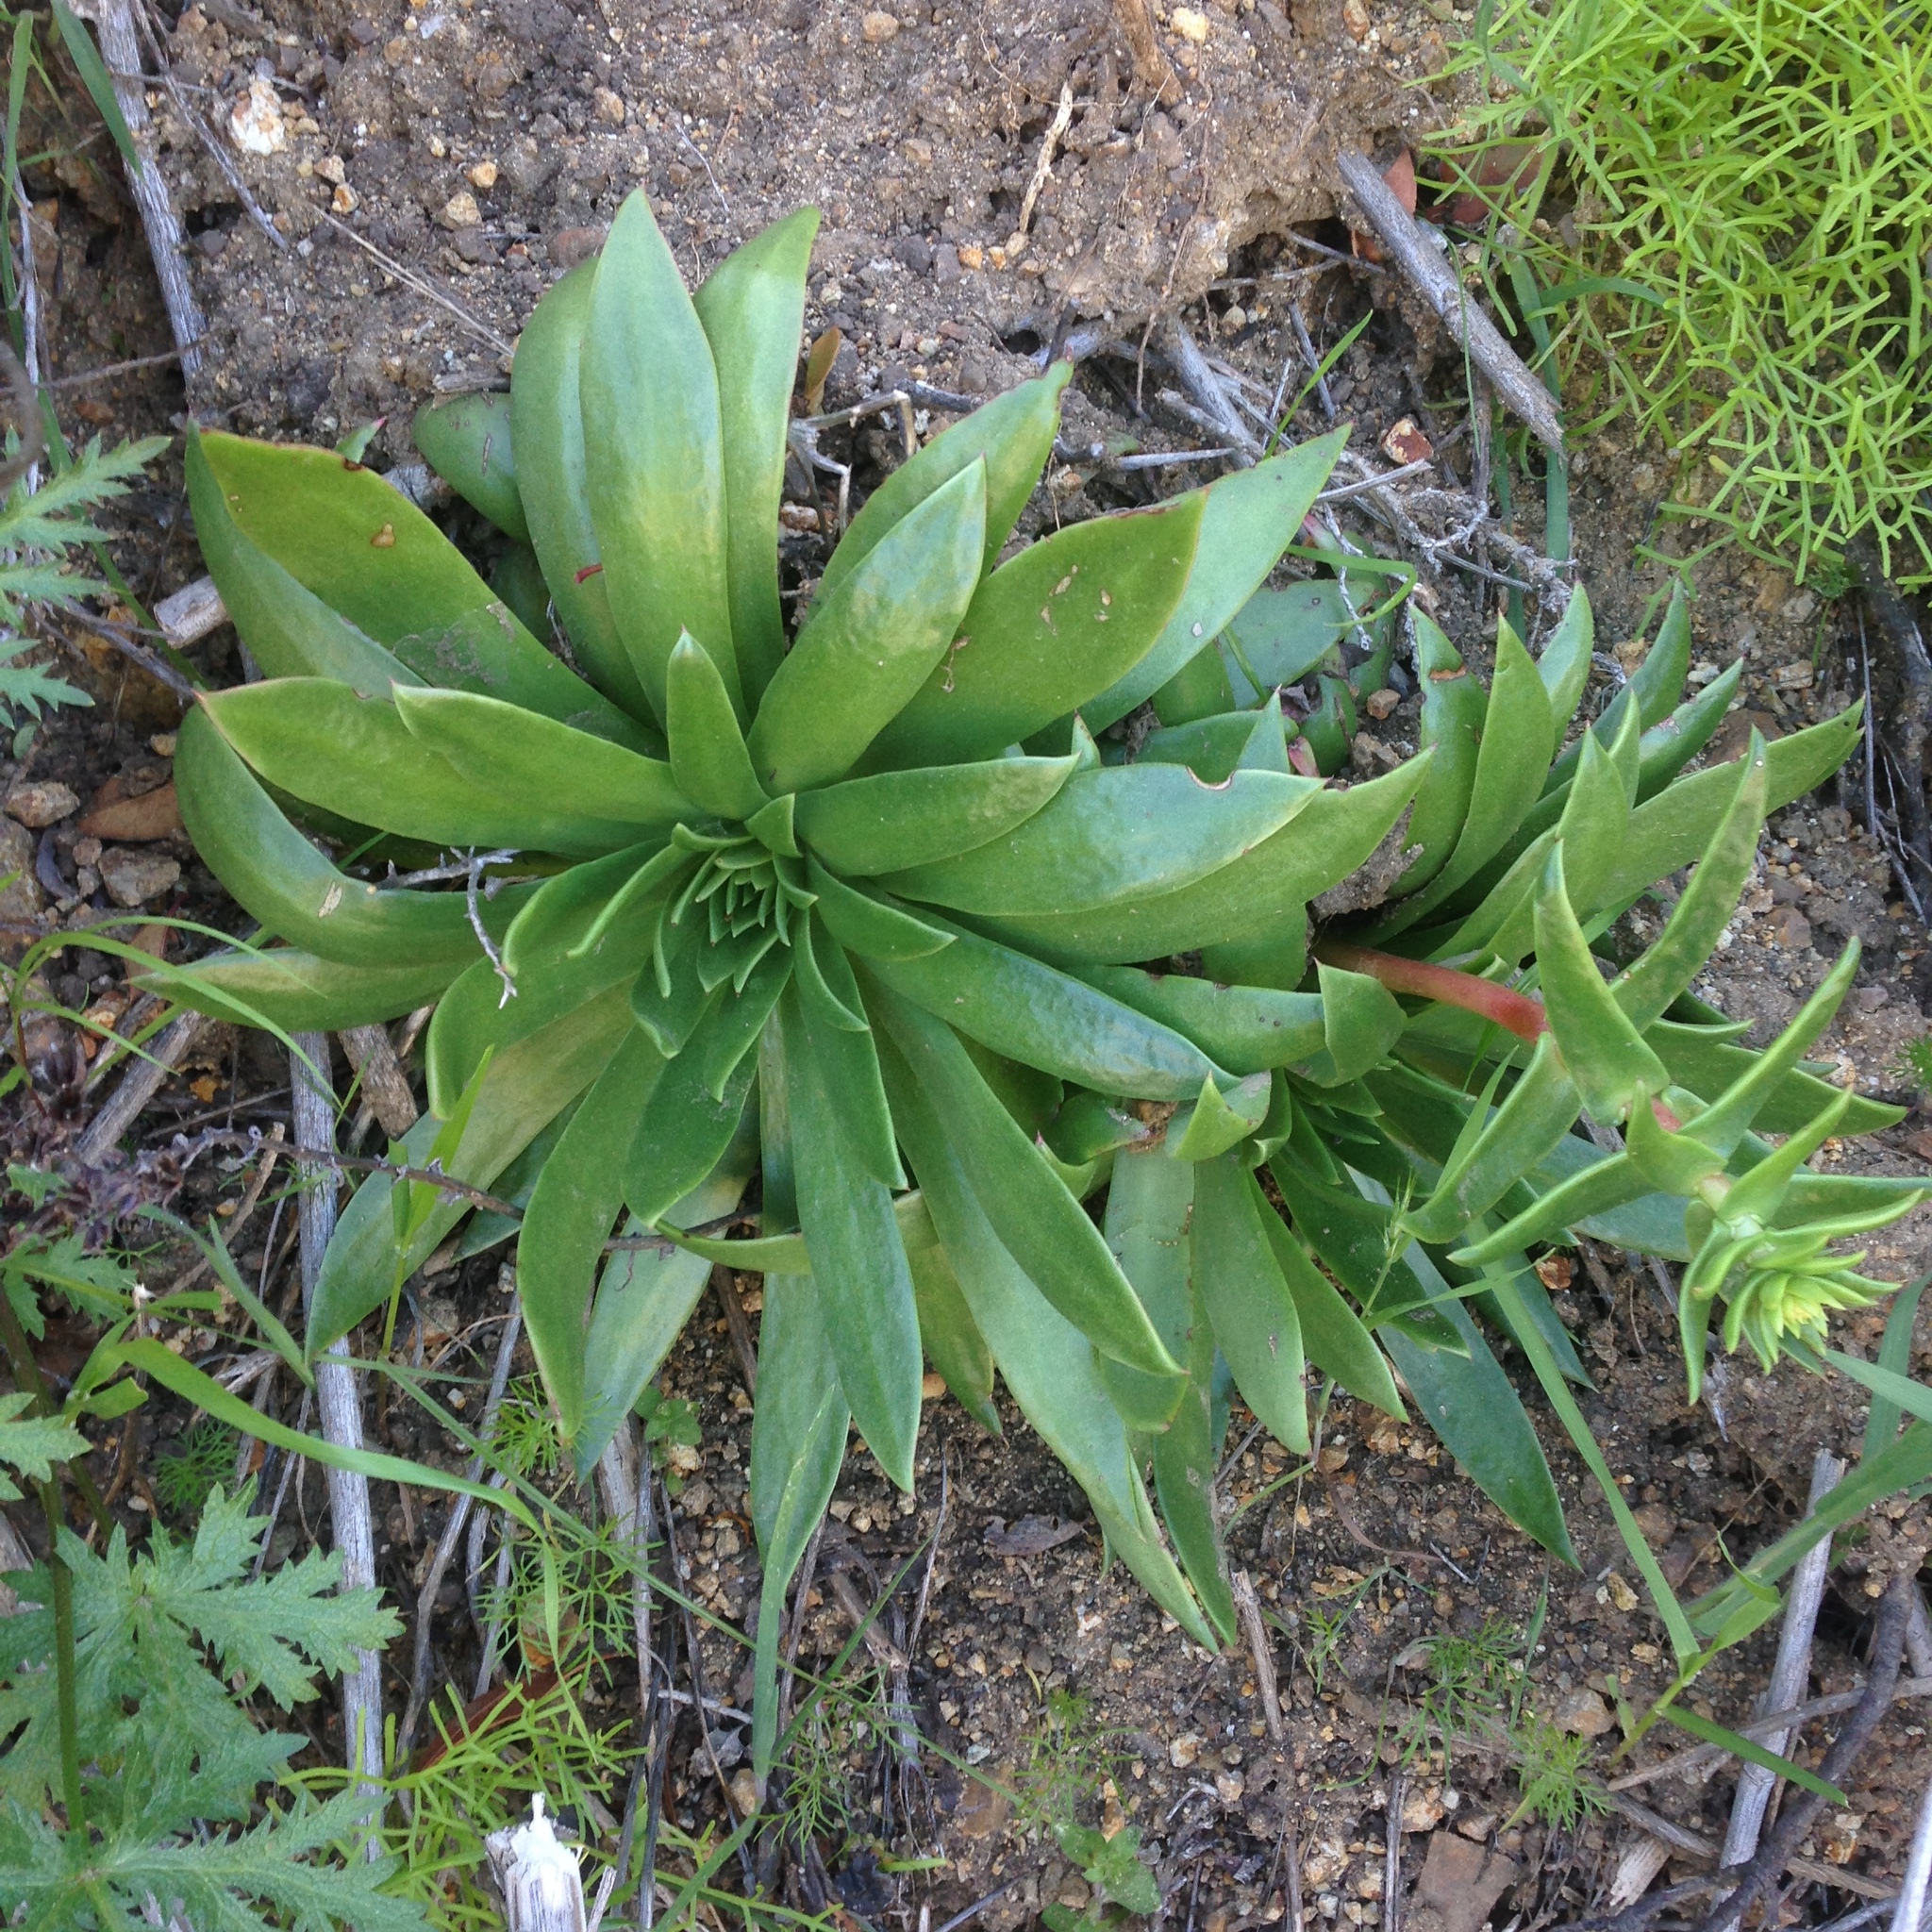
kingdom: Plantae
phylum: Tracheophyta
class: Magnoliopsida
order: Saxifragales
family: Crassulaceae
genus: Dudleya
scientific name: Dudleya candelabrum
